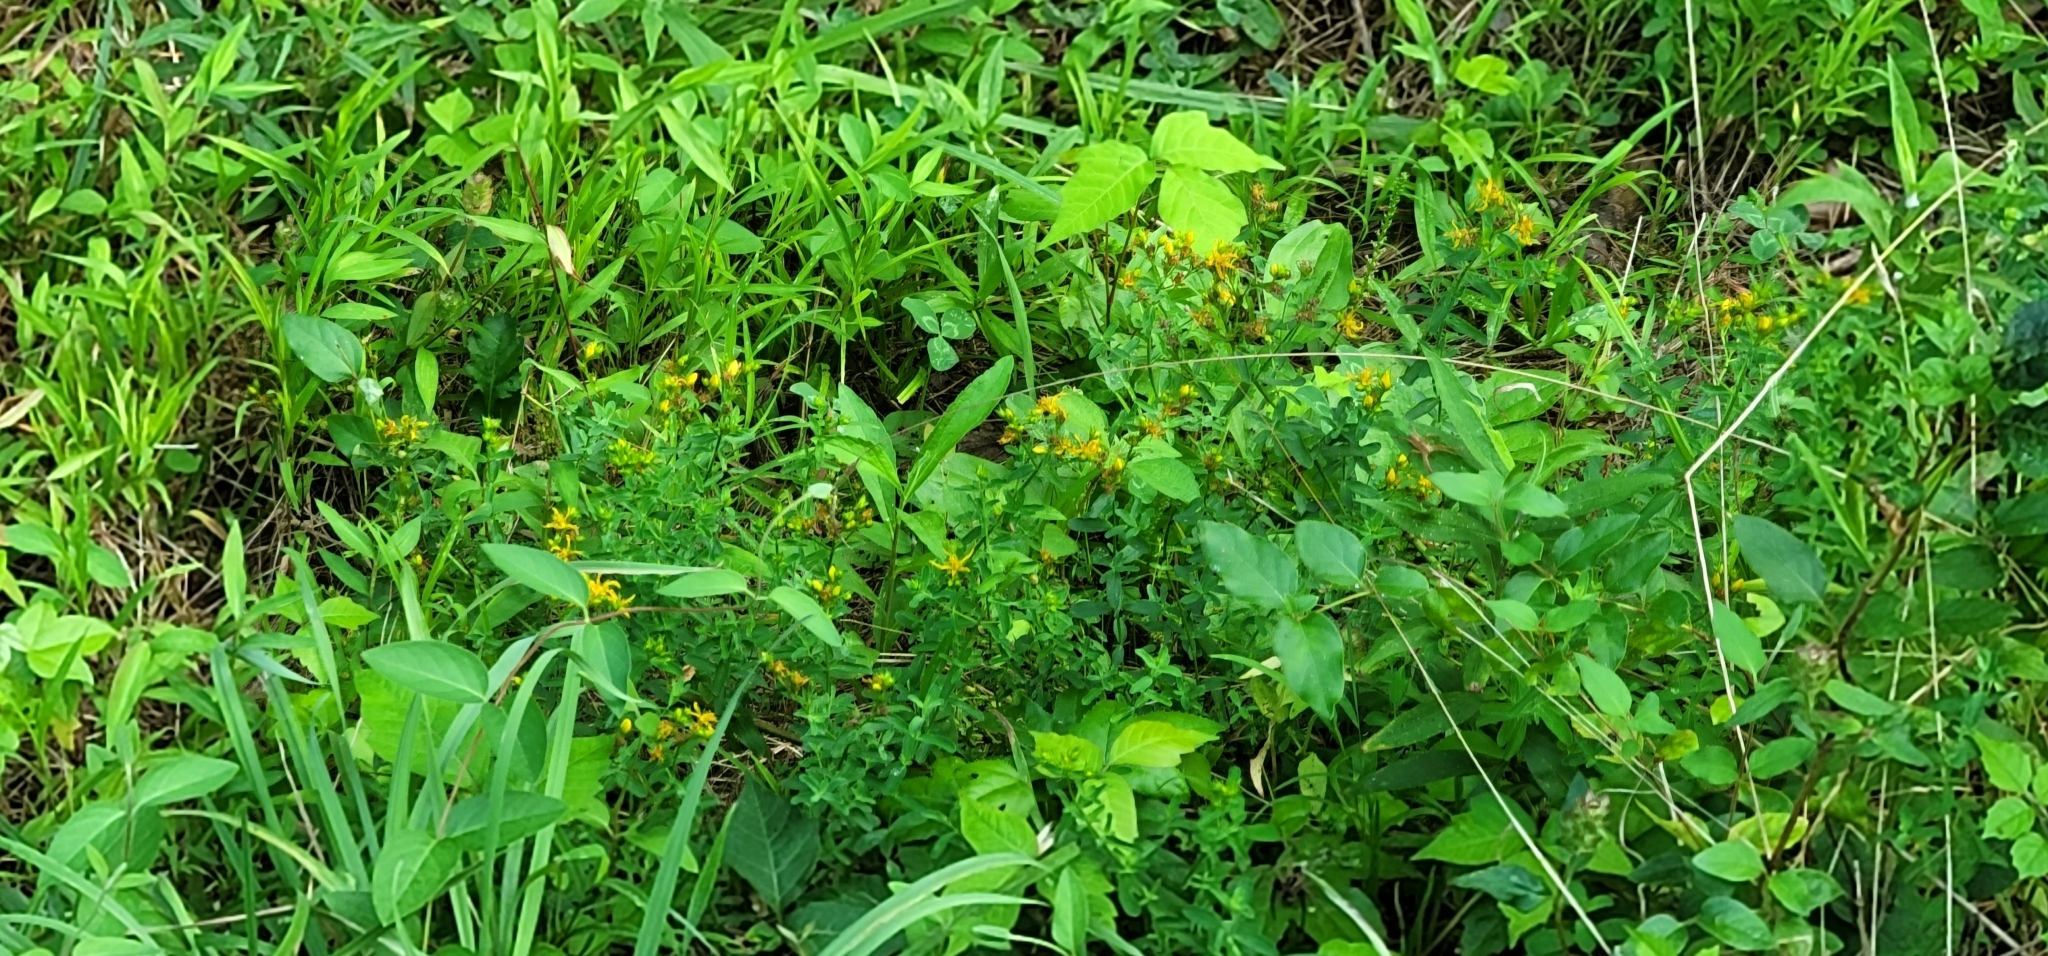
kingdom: Plantae
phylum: Tracheophyta
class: Magnoliopsida
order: Sapindales
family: Anacardiaceae
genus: Toxicodendron
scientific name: Toxicodendron radicans
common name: Poison ivy
